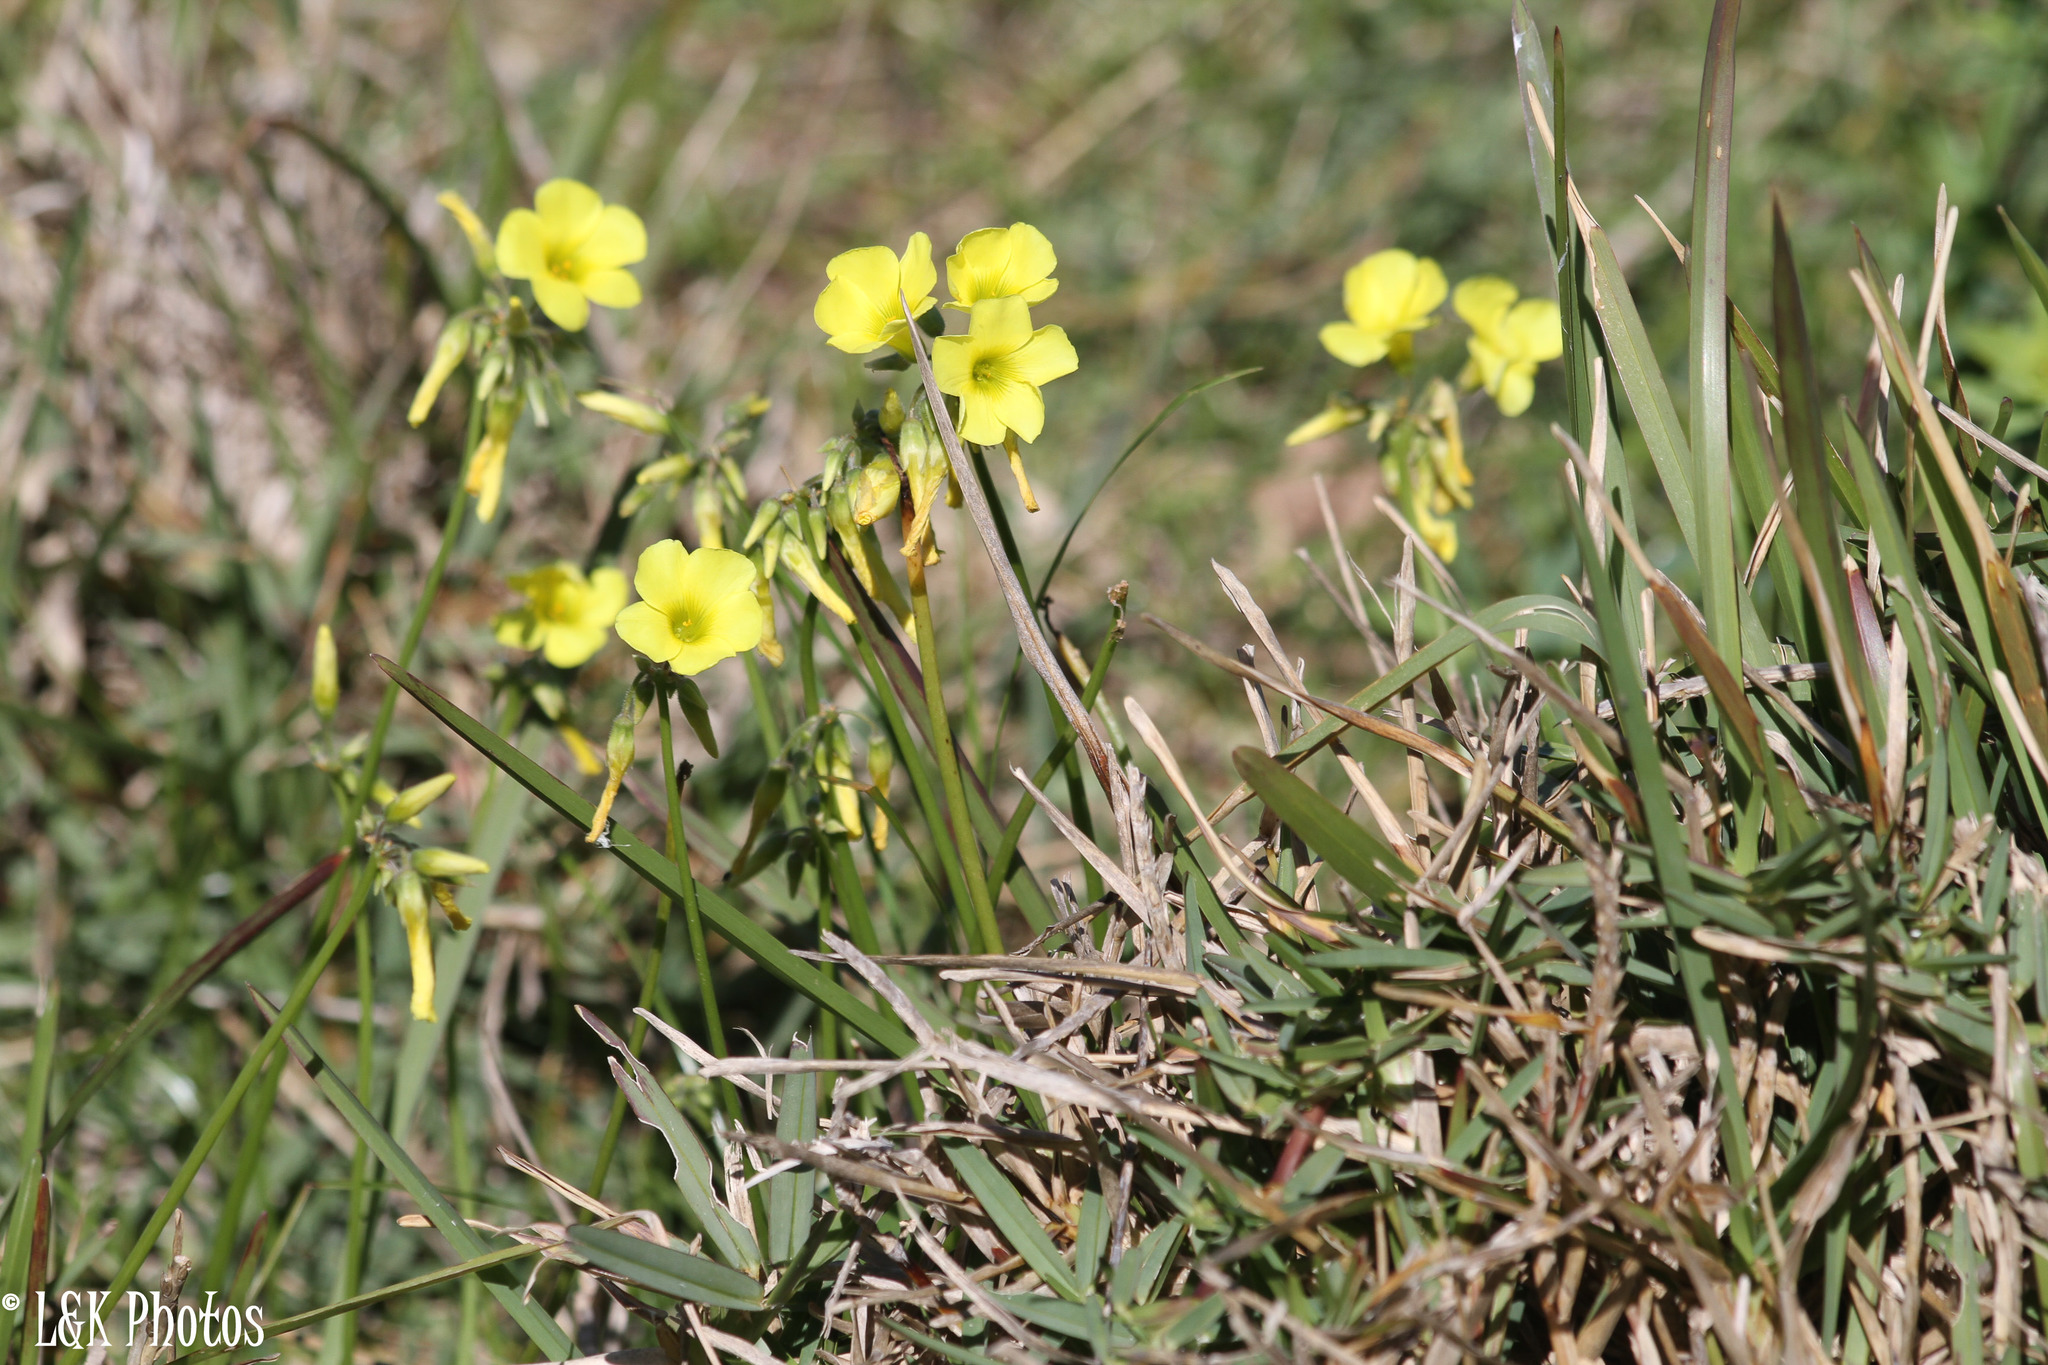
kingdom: Plantae
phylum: Tracheophyta
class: Magnoliopsida
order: Oxalidales
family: Oxalidaceae
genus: Oxalis
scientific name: Oxalis pes-caprae
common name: Bermuda-buttercup
